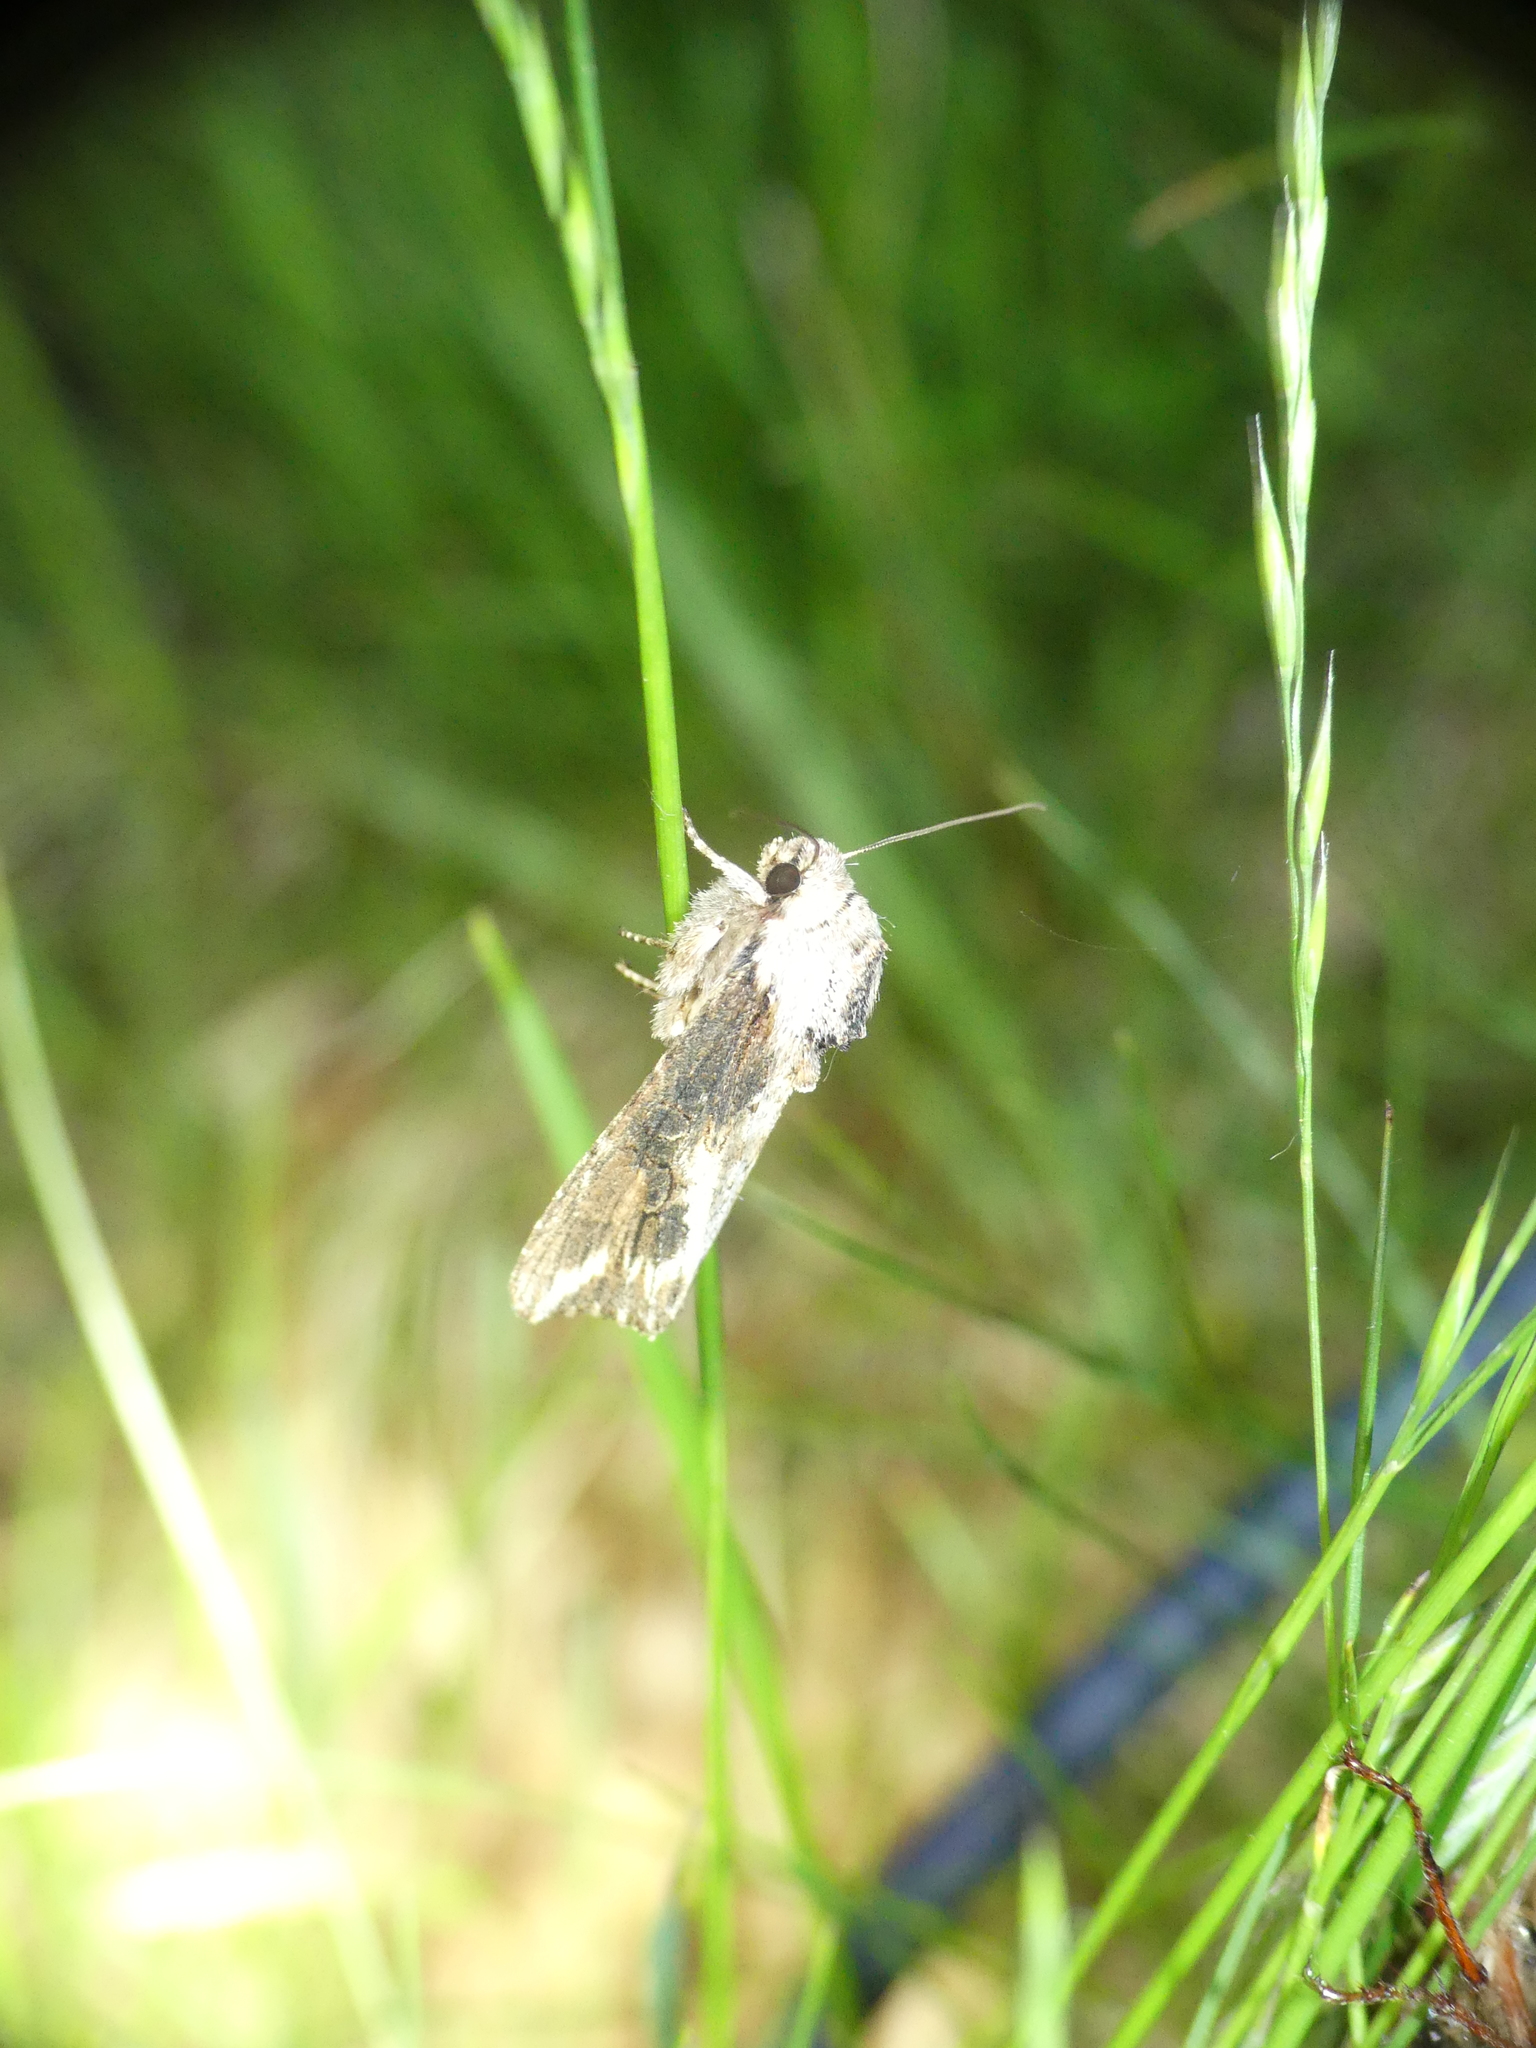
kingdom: Animalia
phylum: Arthropoda
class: Insecta
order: Lepidoptera
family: Noctuidae
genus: Egira
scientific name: Egira conspicillaris
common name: Silver cloud
